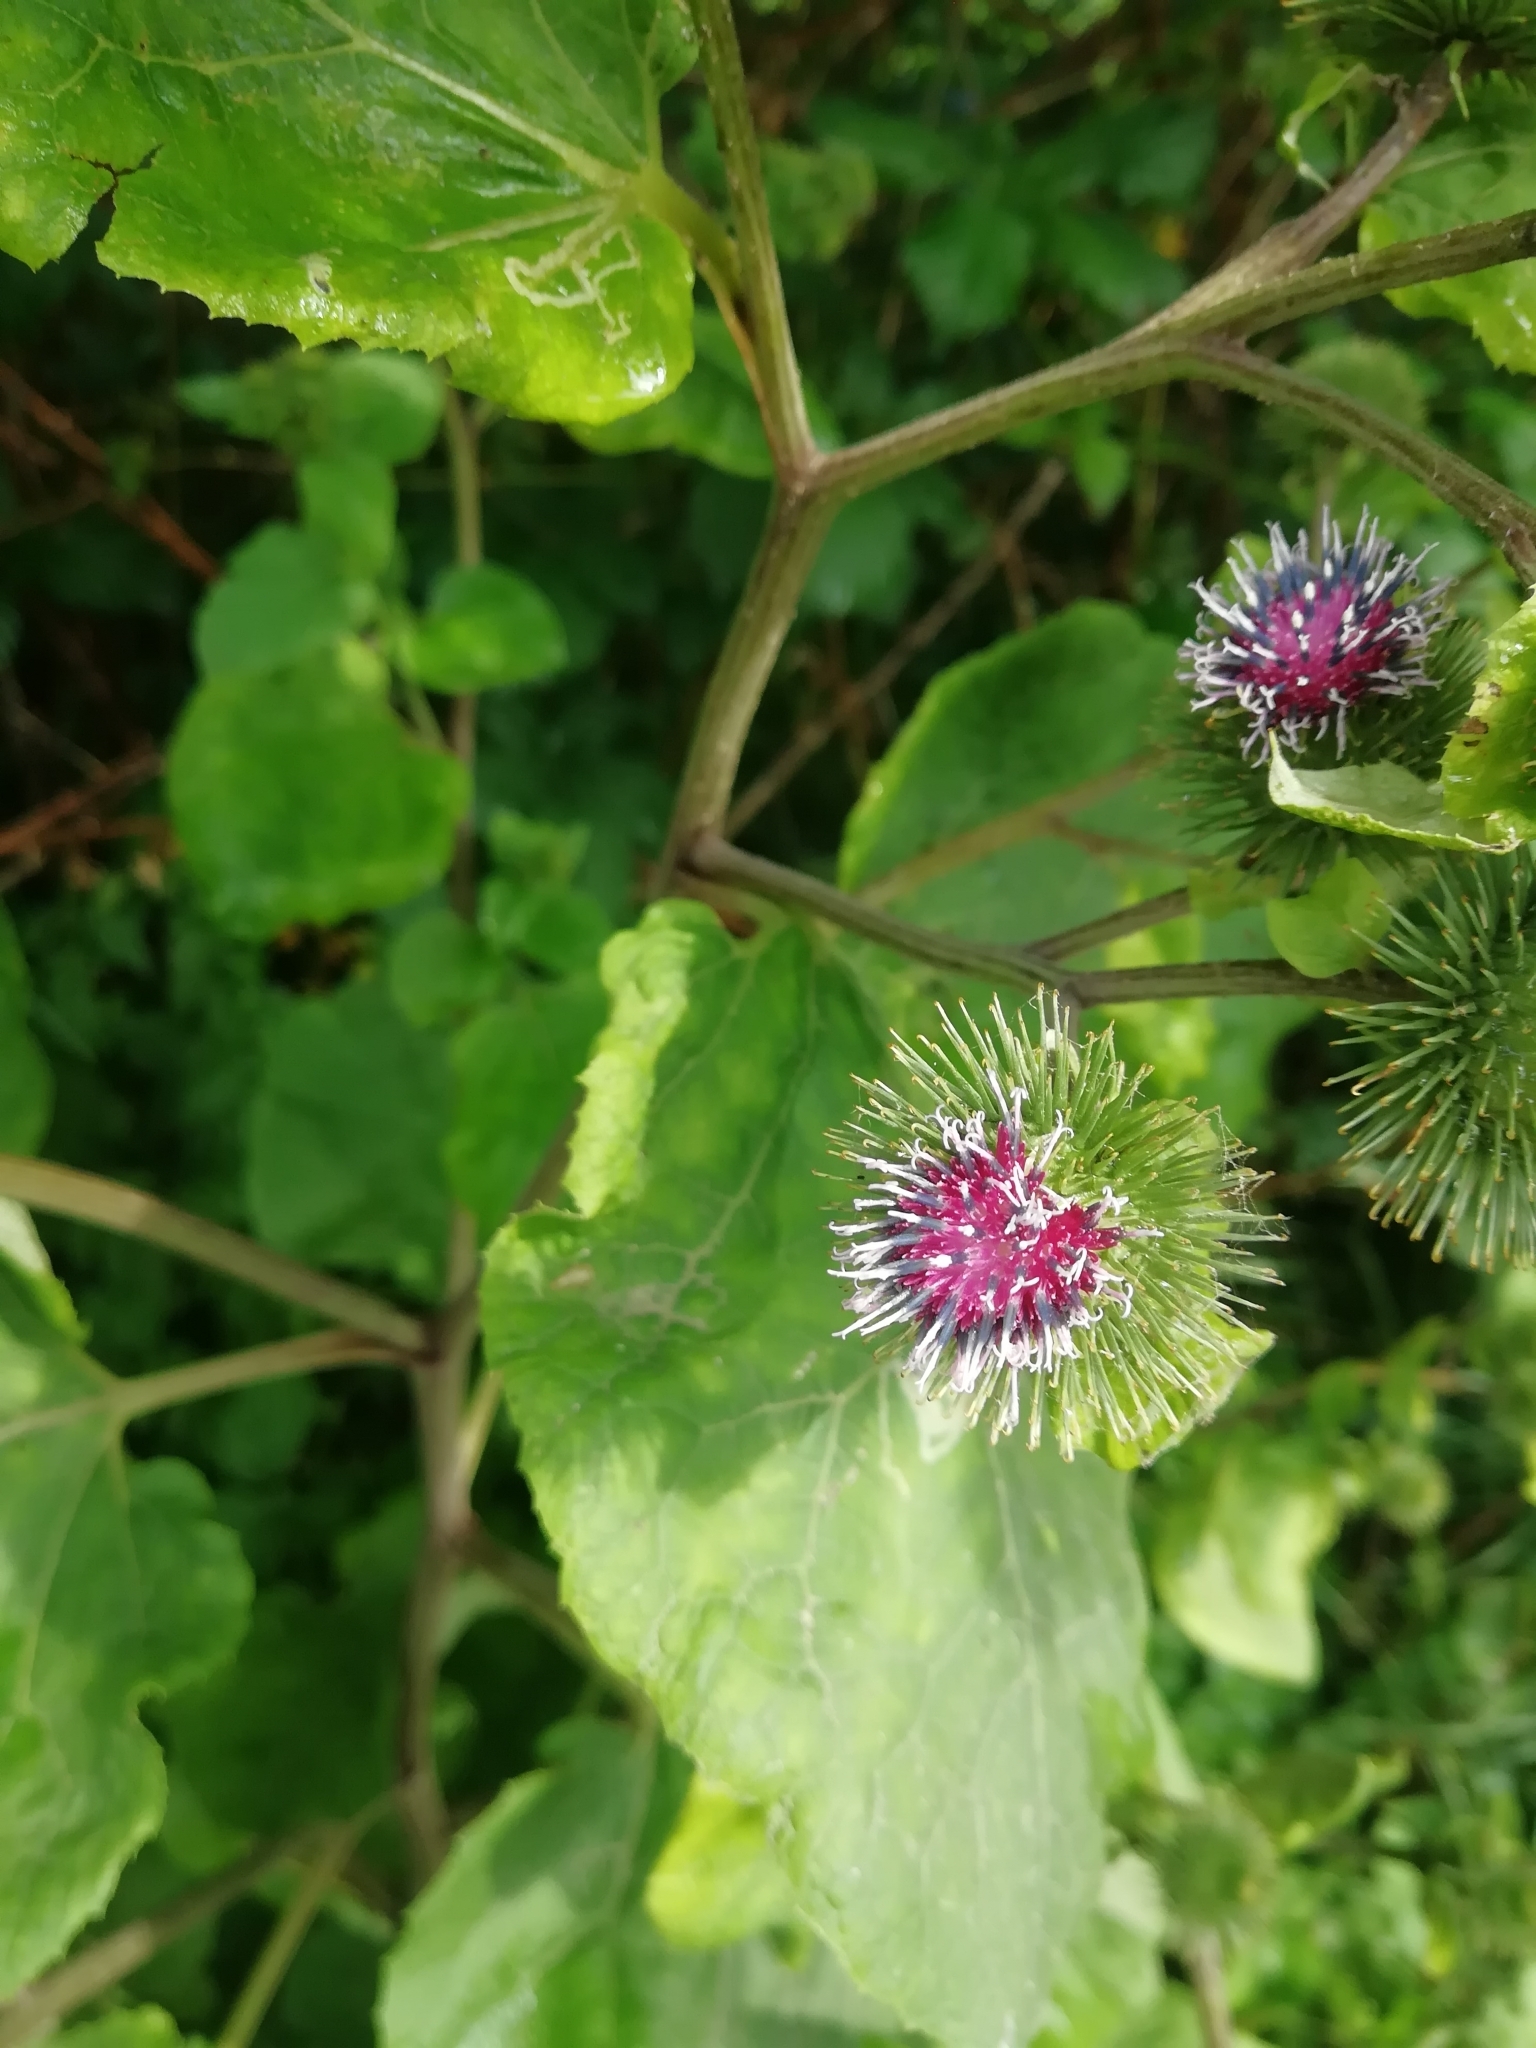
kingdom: Plantae
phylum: Tracheophyta
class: Magnoliopsida
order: Asterales
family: Asteraceae
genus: Arctium
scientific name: Arctium lappa
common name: Greater burdock
